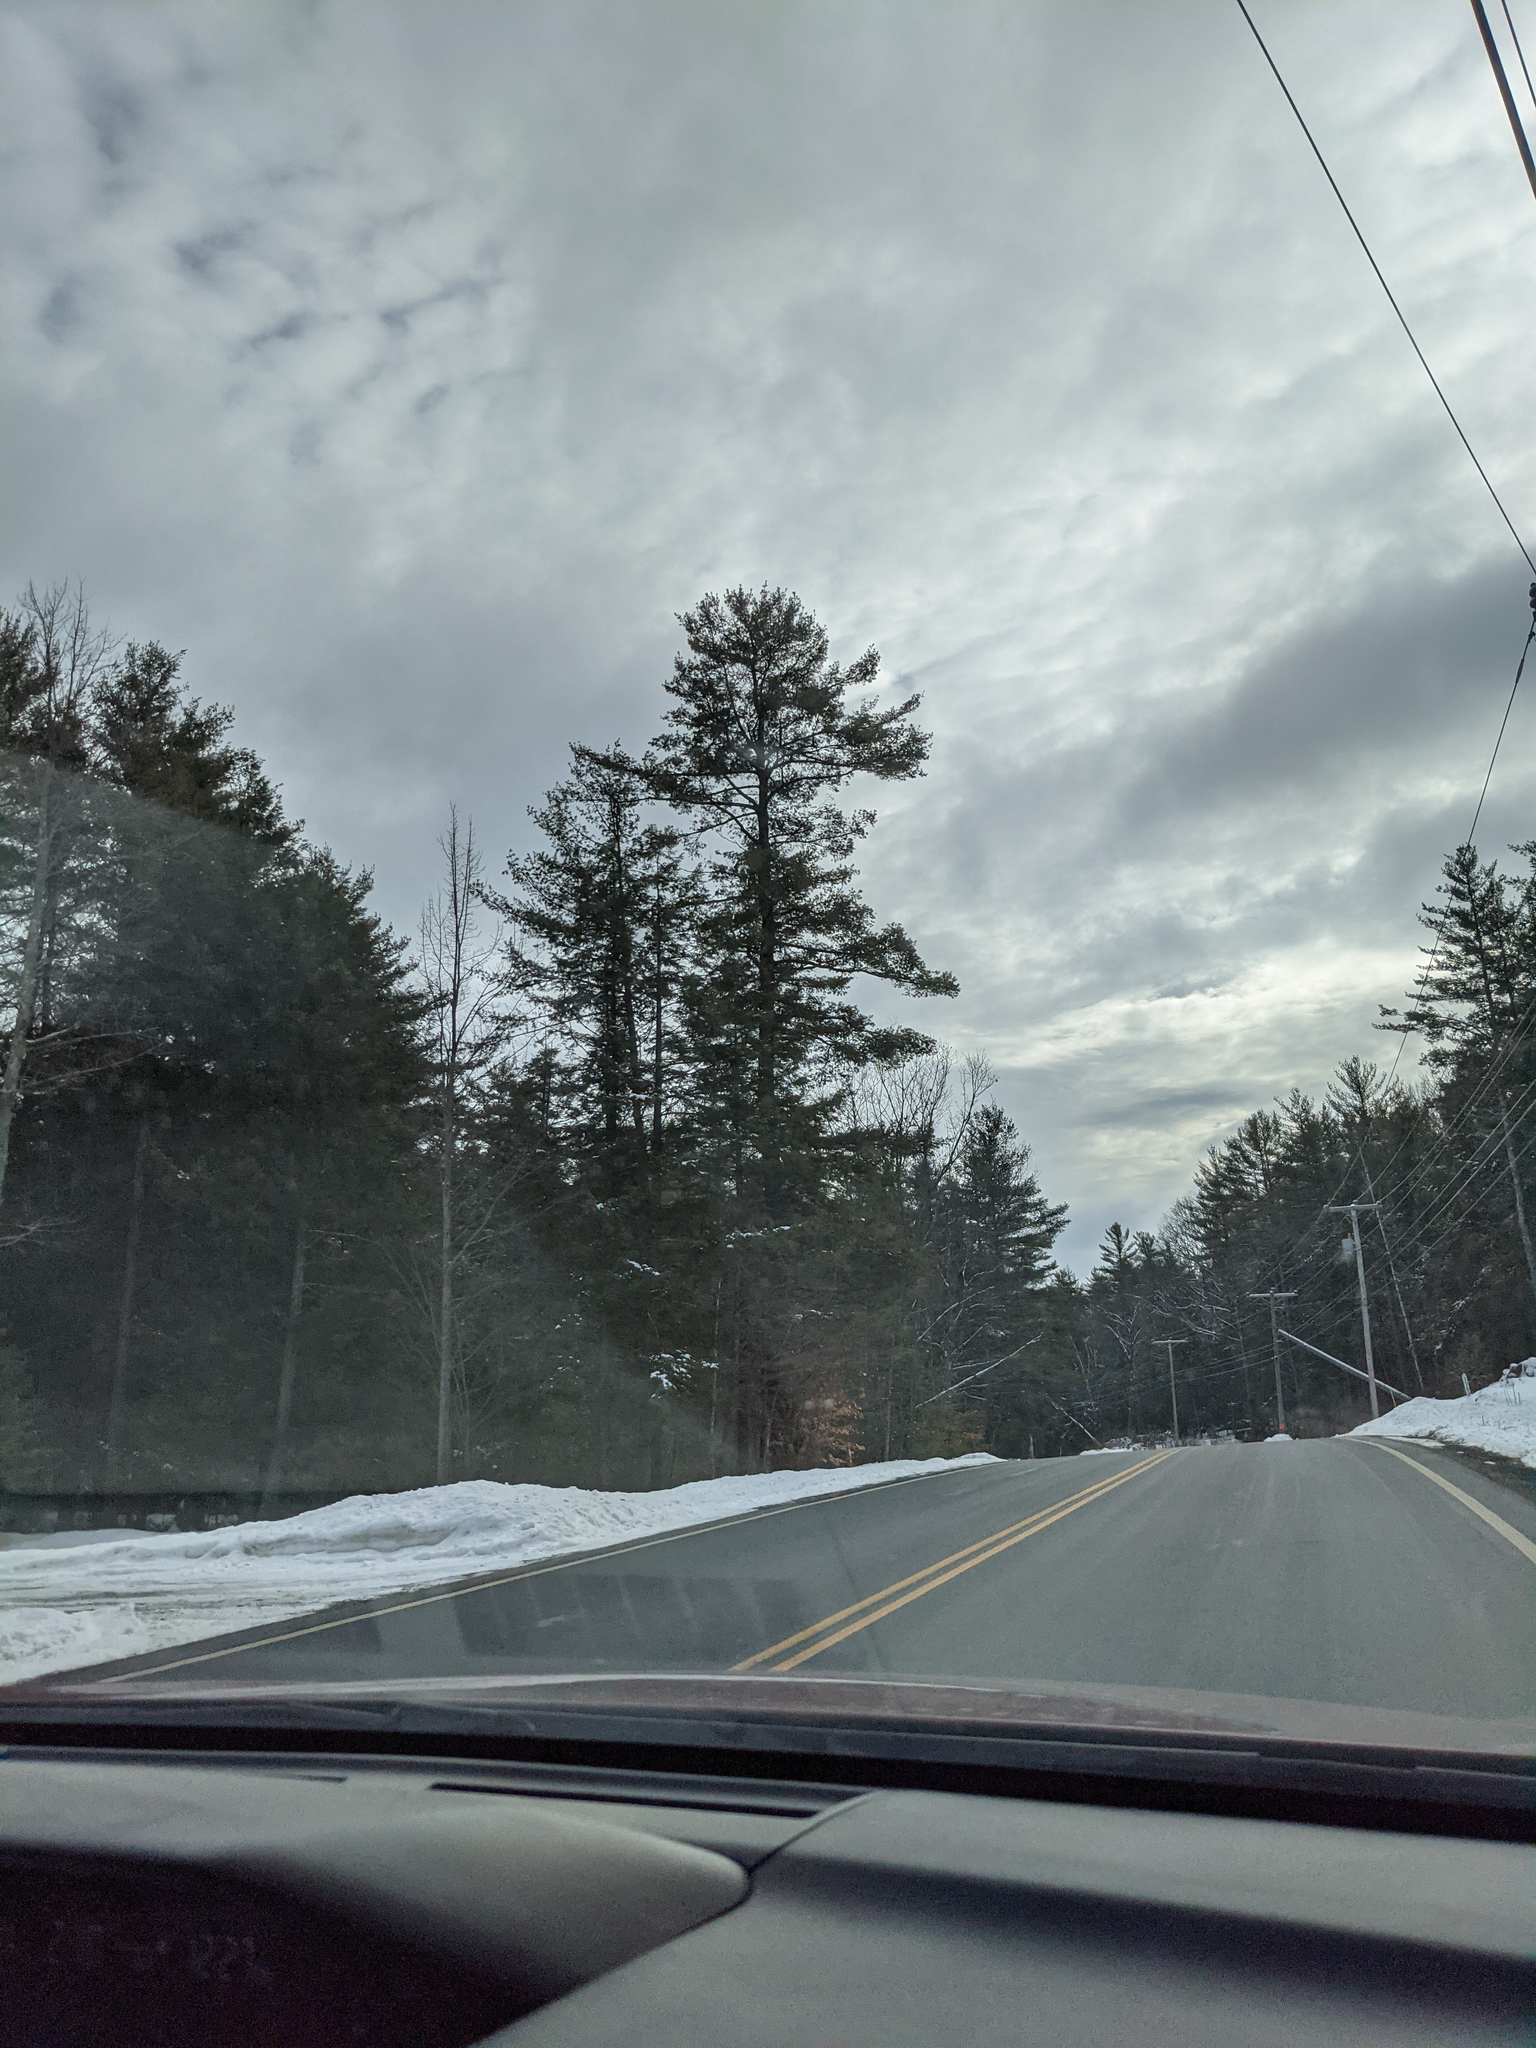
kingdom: Plantae
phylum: Tracheophyta
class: Pinopsida
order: Pinales
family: Pinaceae
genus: Pinus
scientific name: Pinus strobus
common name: Weymouth pine
